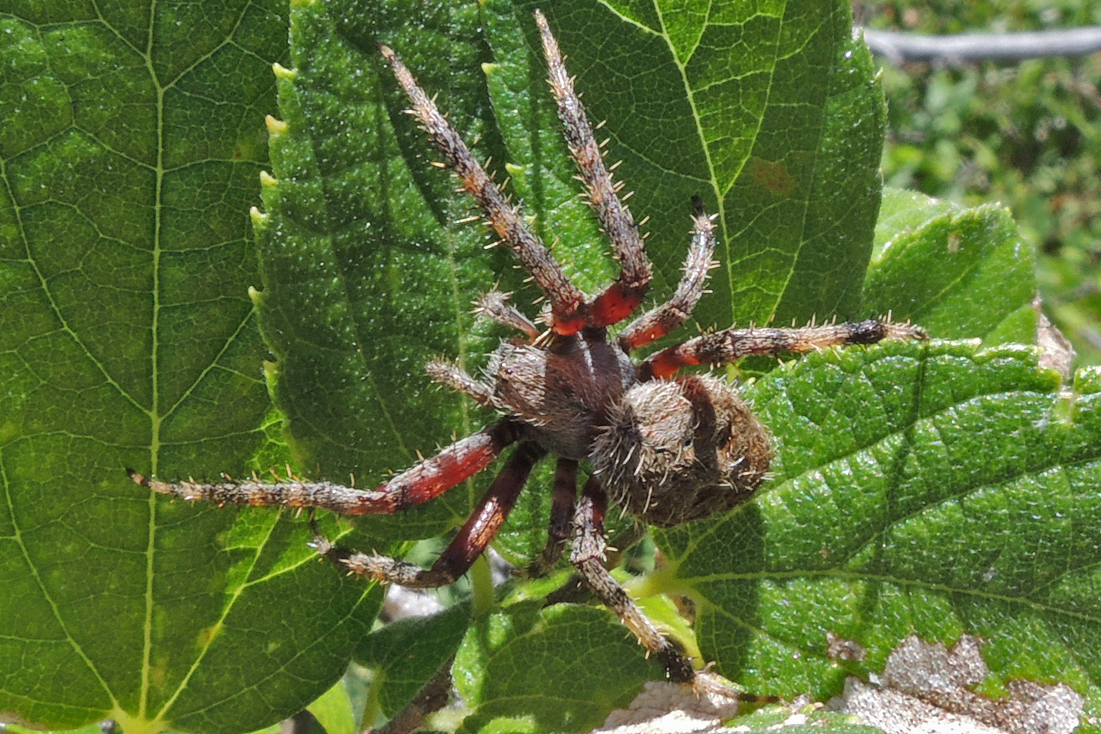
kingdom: Animalia
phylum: Arthropoda
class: Arachnida
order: Araneae
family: Araneidae
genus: Neoscona
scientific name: Neoscona crucifera
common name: Spotted orbweaver
